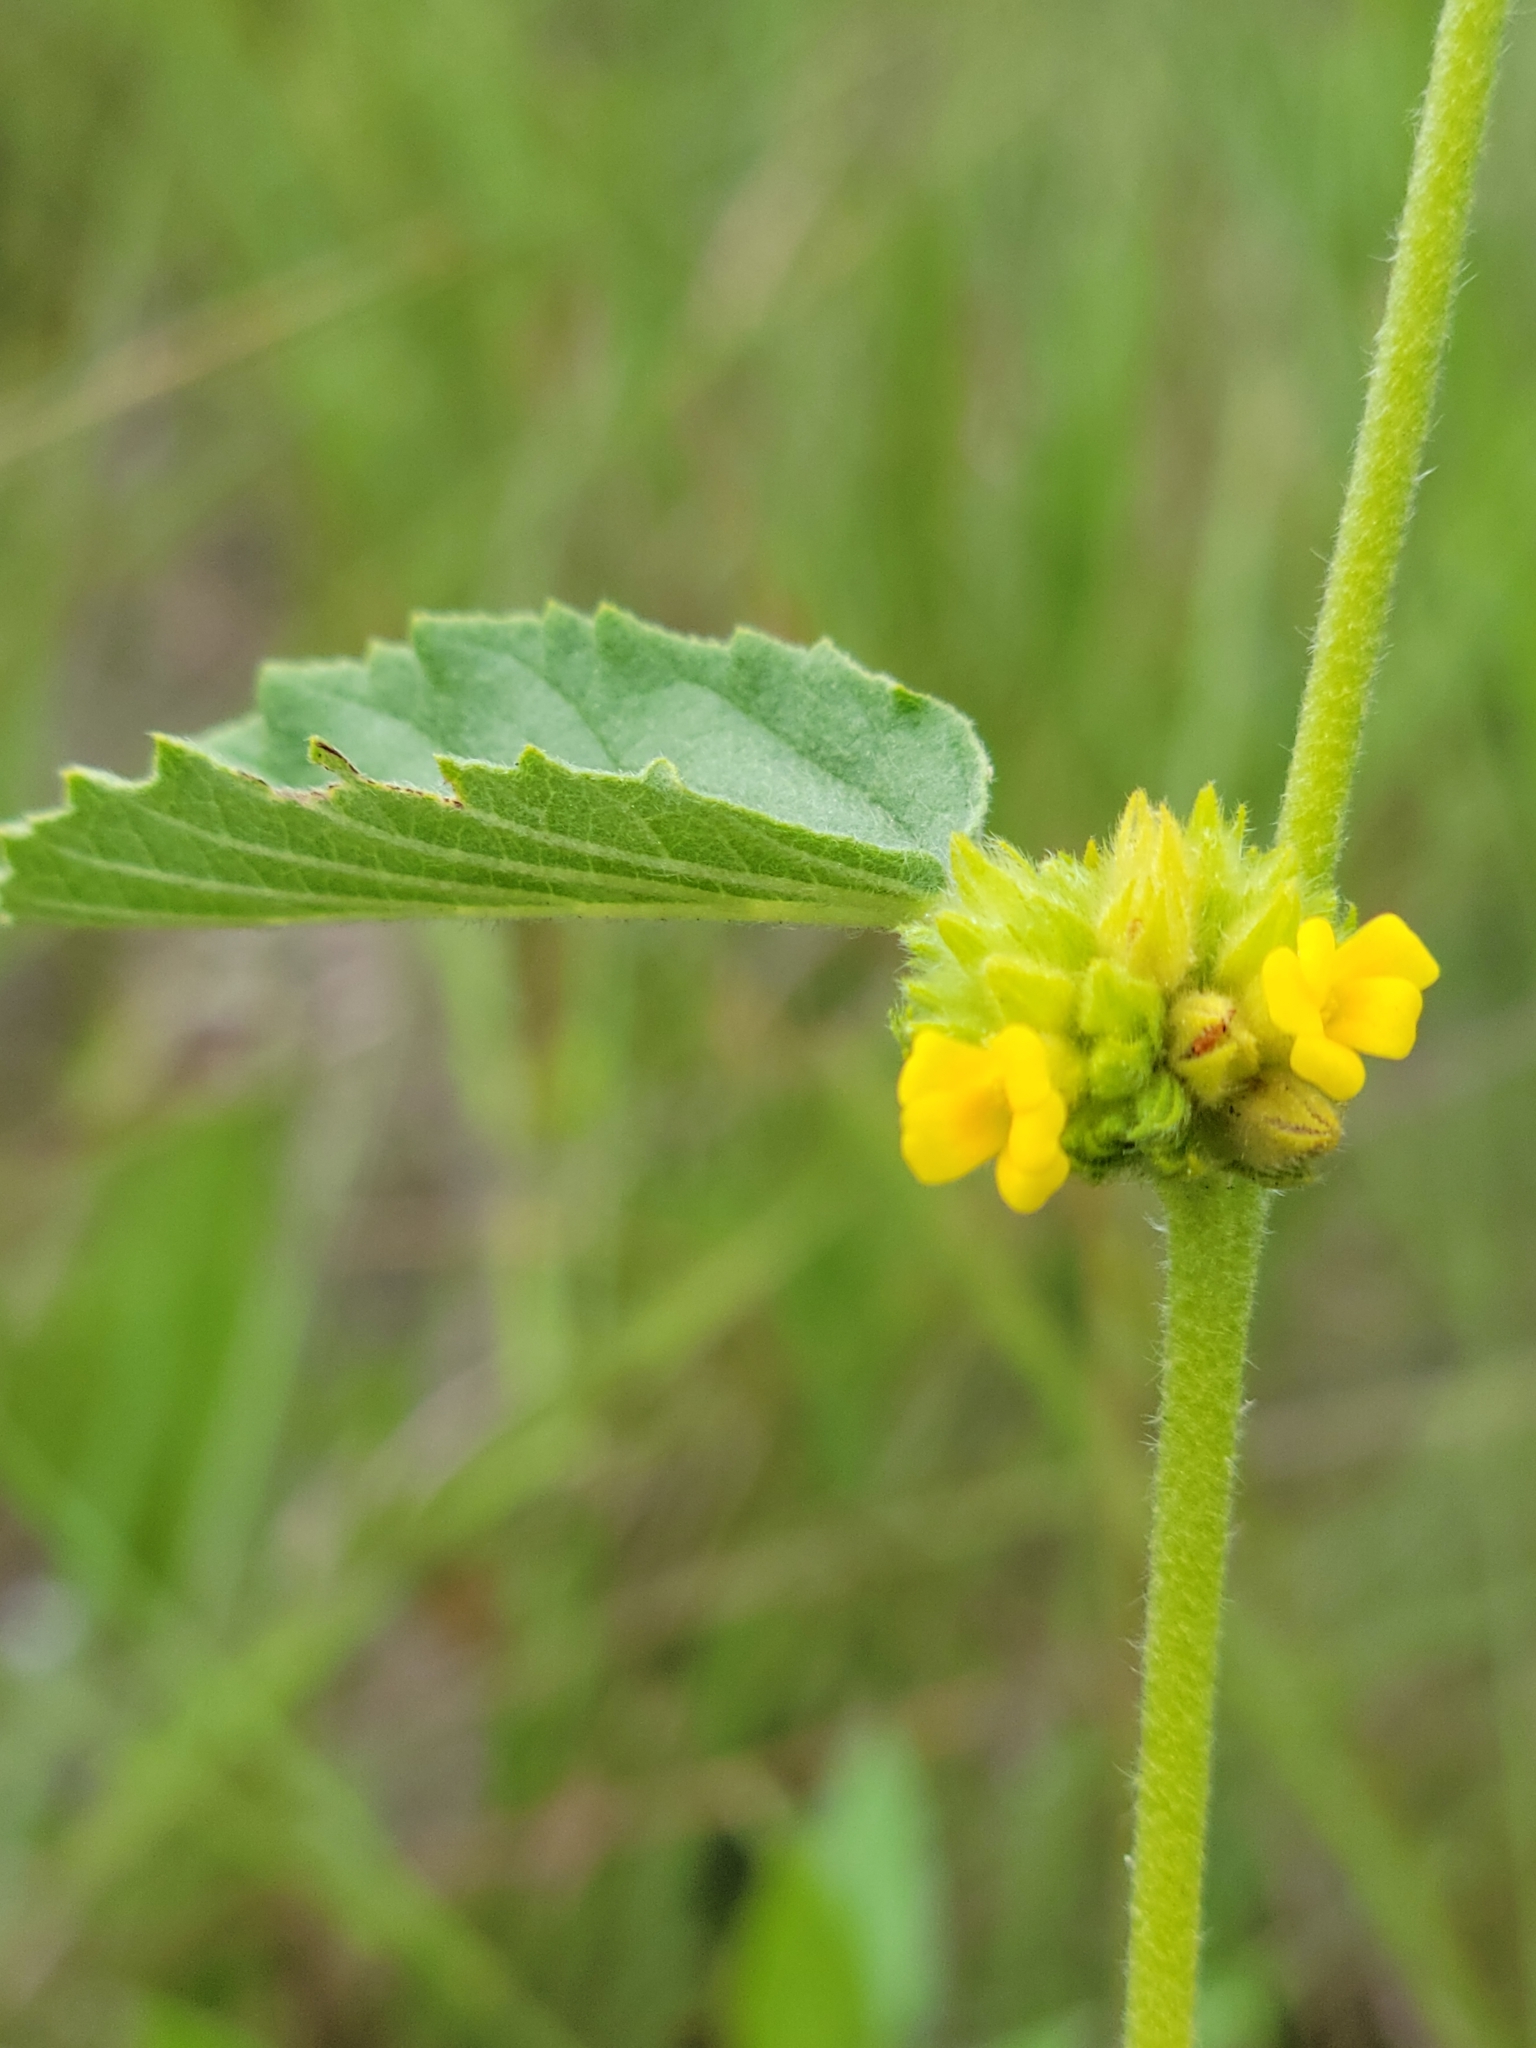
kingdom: Plantae
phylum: Tracheophyta
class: Magnoliopsida
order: Malvales
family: Malvaceae
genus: Waltheria
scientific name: Waltheria indica
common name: Leather-coat
